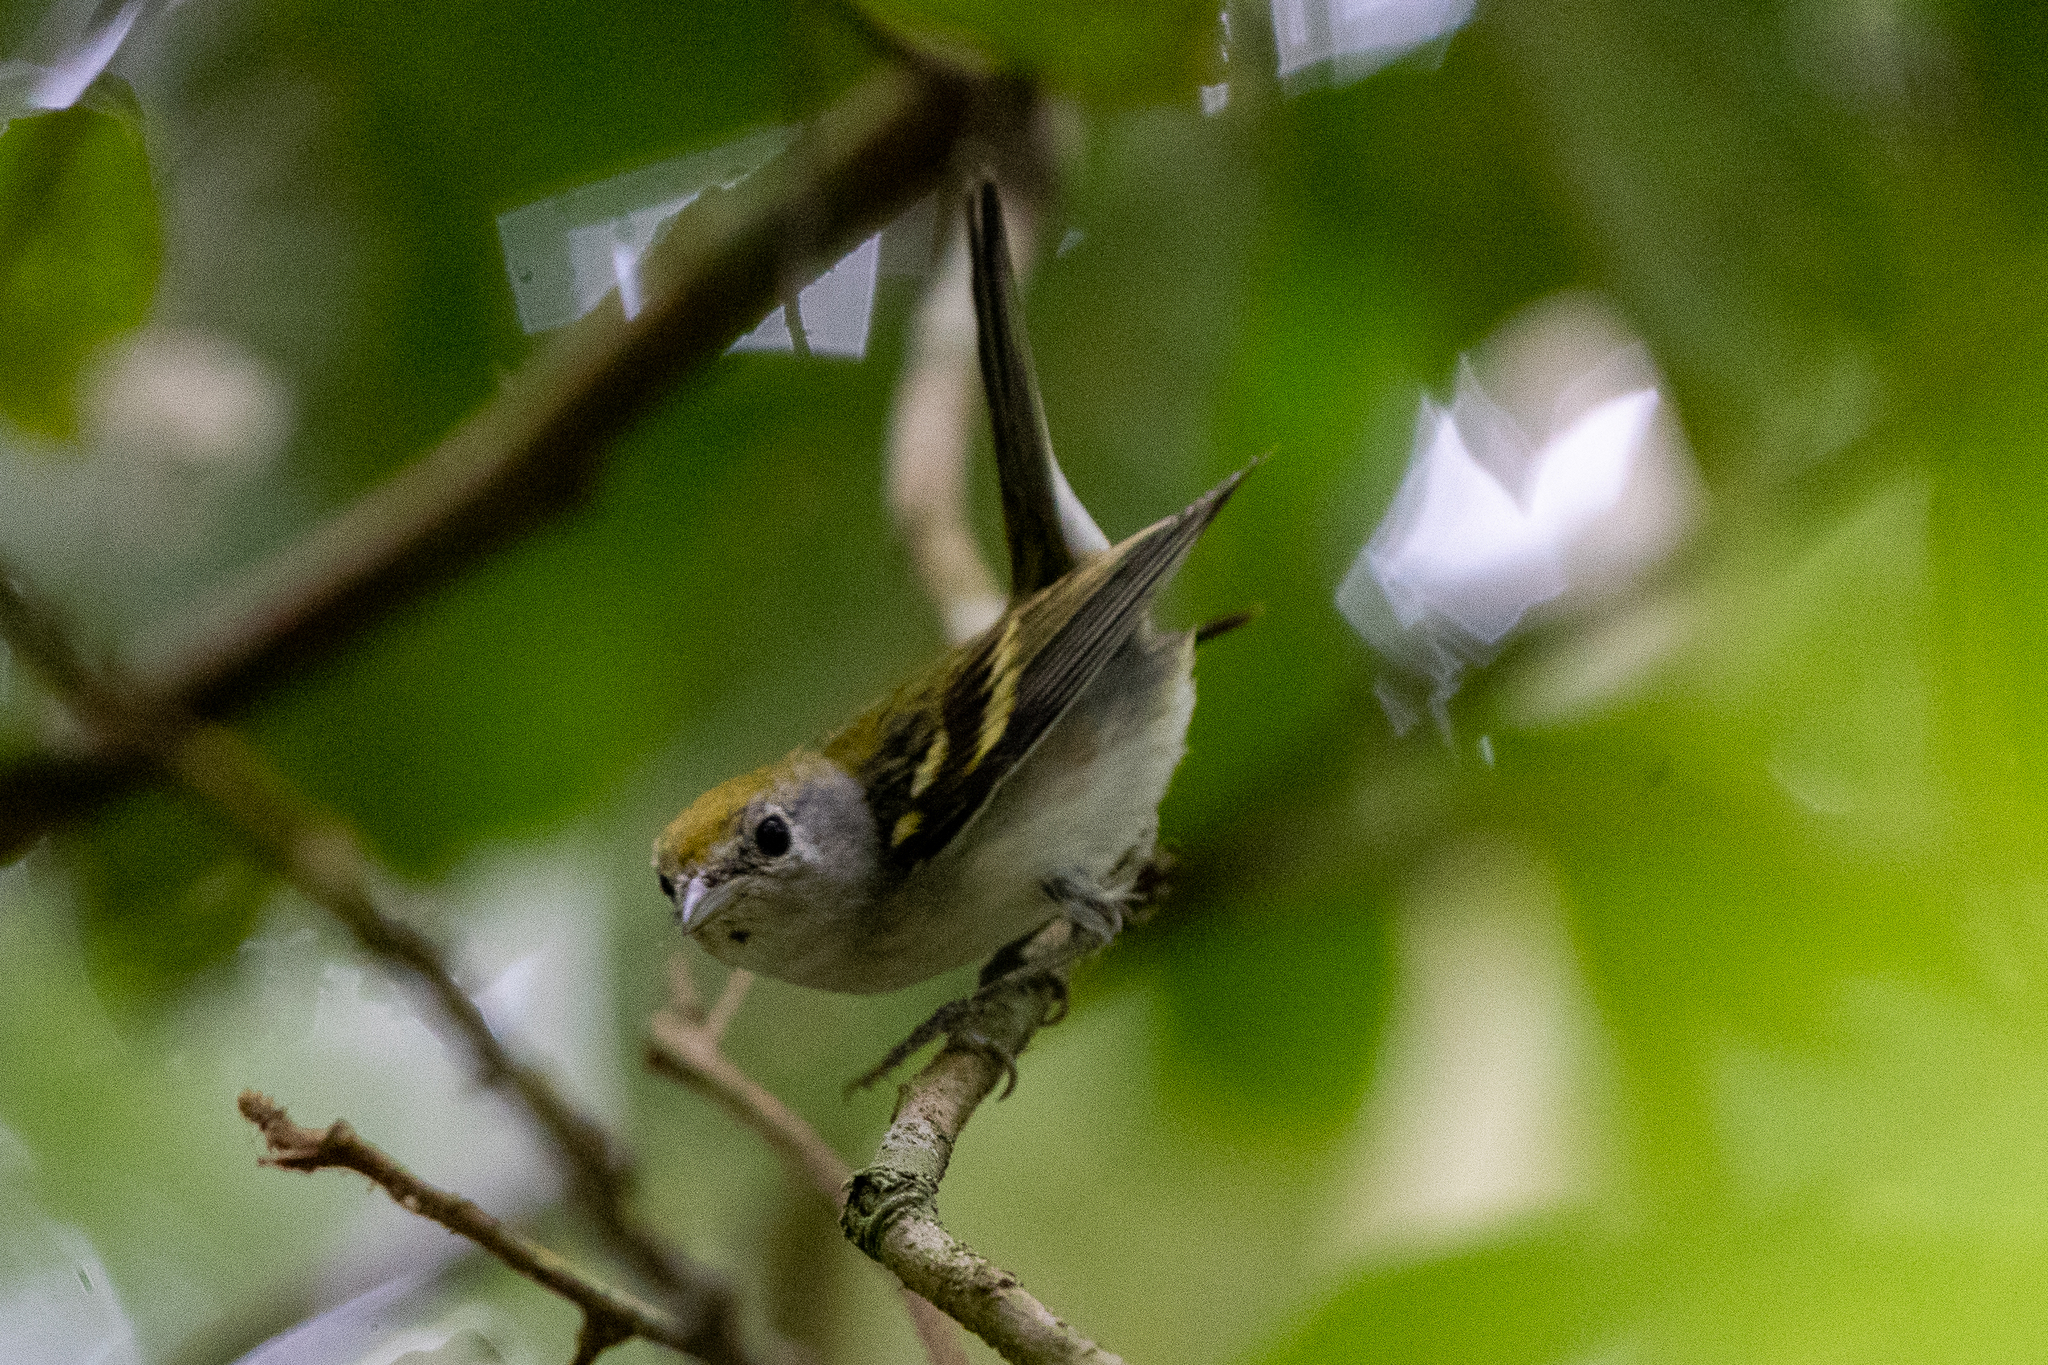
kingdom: Animalia
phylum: Chordata
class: Aves
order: Passeriformes
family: Parulidae
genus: Setophaga
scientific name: Setophaga pensylvanica
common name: Chestnut-sided warbler
